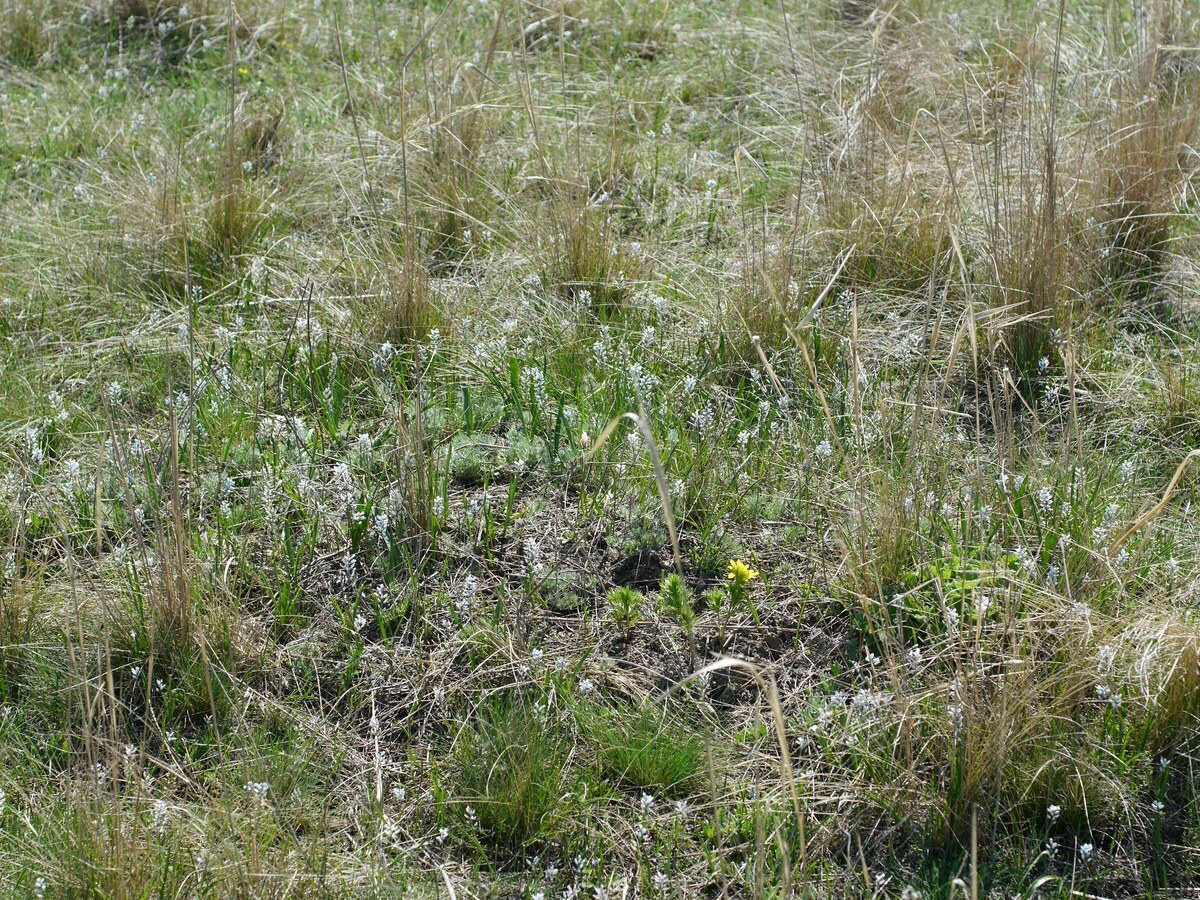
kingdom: Plantae
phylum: Tracheophyta
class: Liliopsida
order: Asparagales
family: Asparagaceae
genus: Hyacinthella
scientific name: Hyacinthella leucophaea
